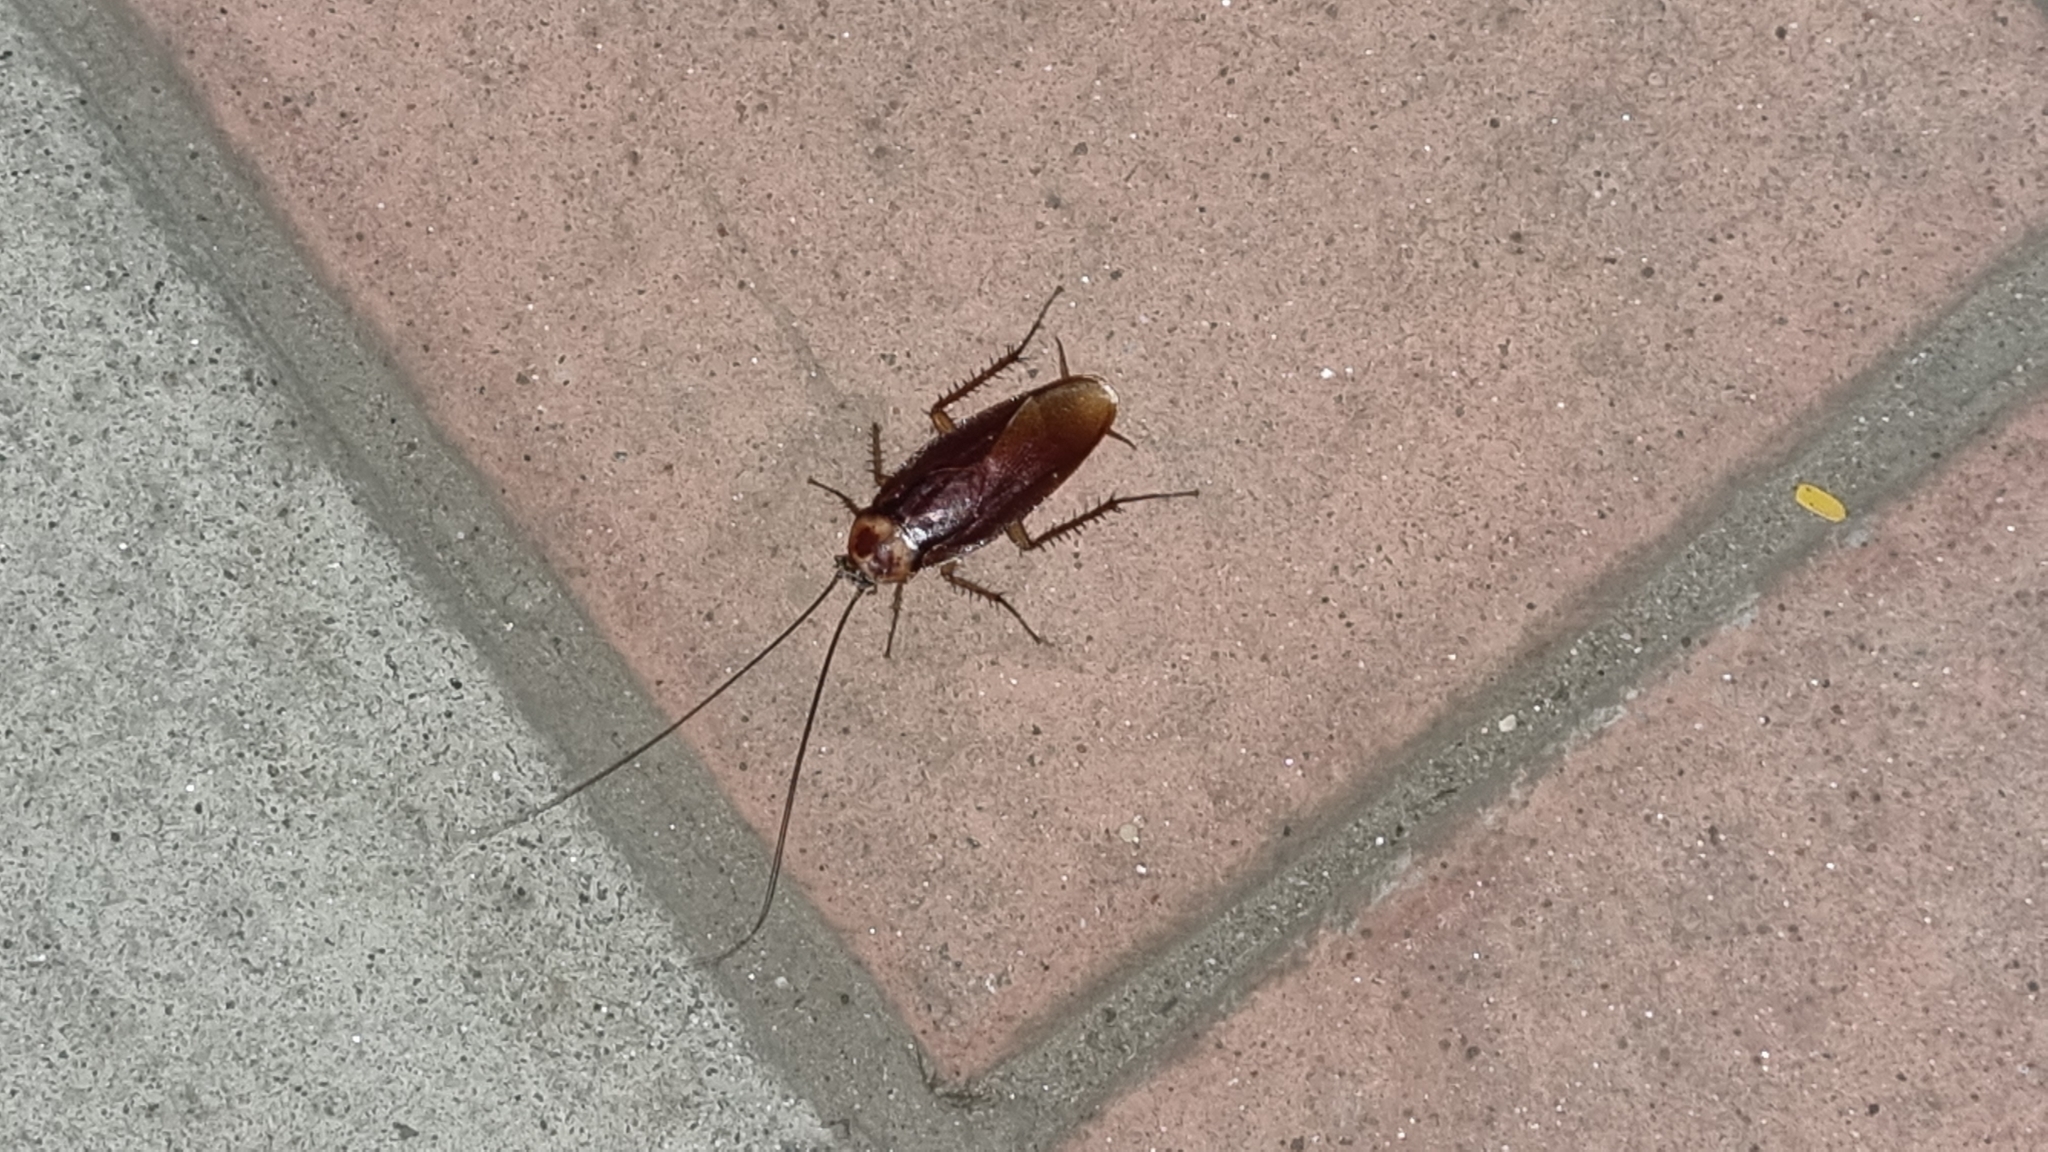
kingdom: Animalia
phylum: Arthropoda
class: Insecta
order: Blattodea
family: Blattidae
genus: Periplaneta
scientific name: Periplaneta americana
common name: American cockroach
